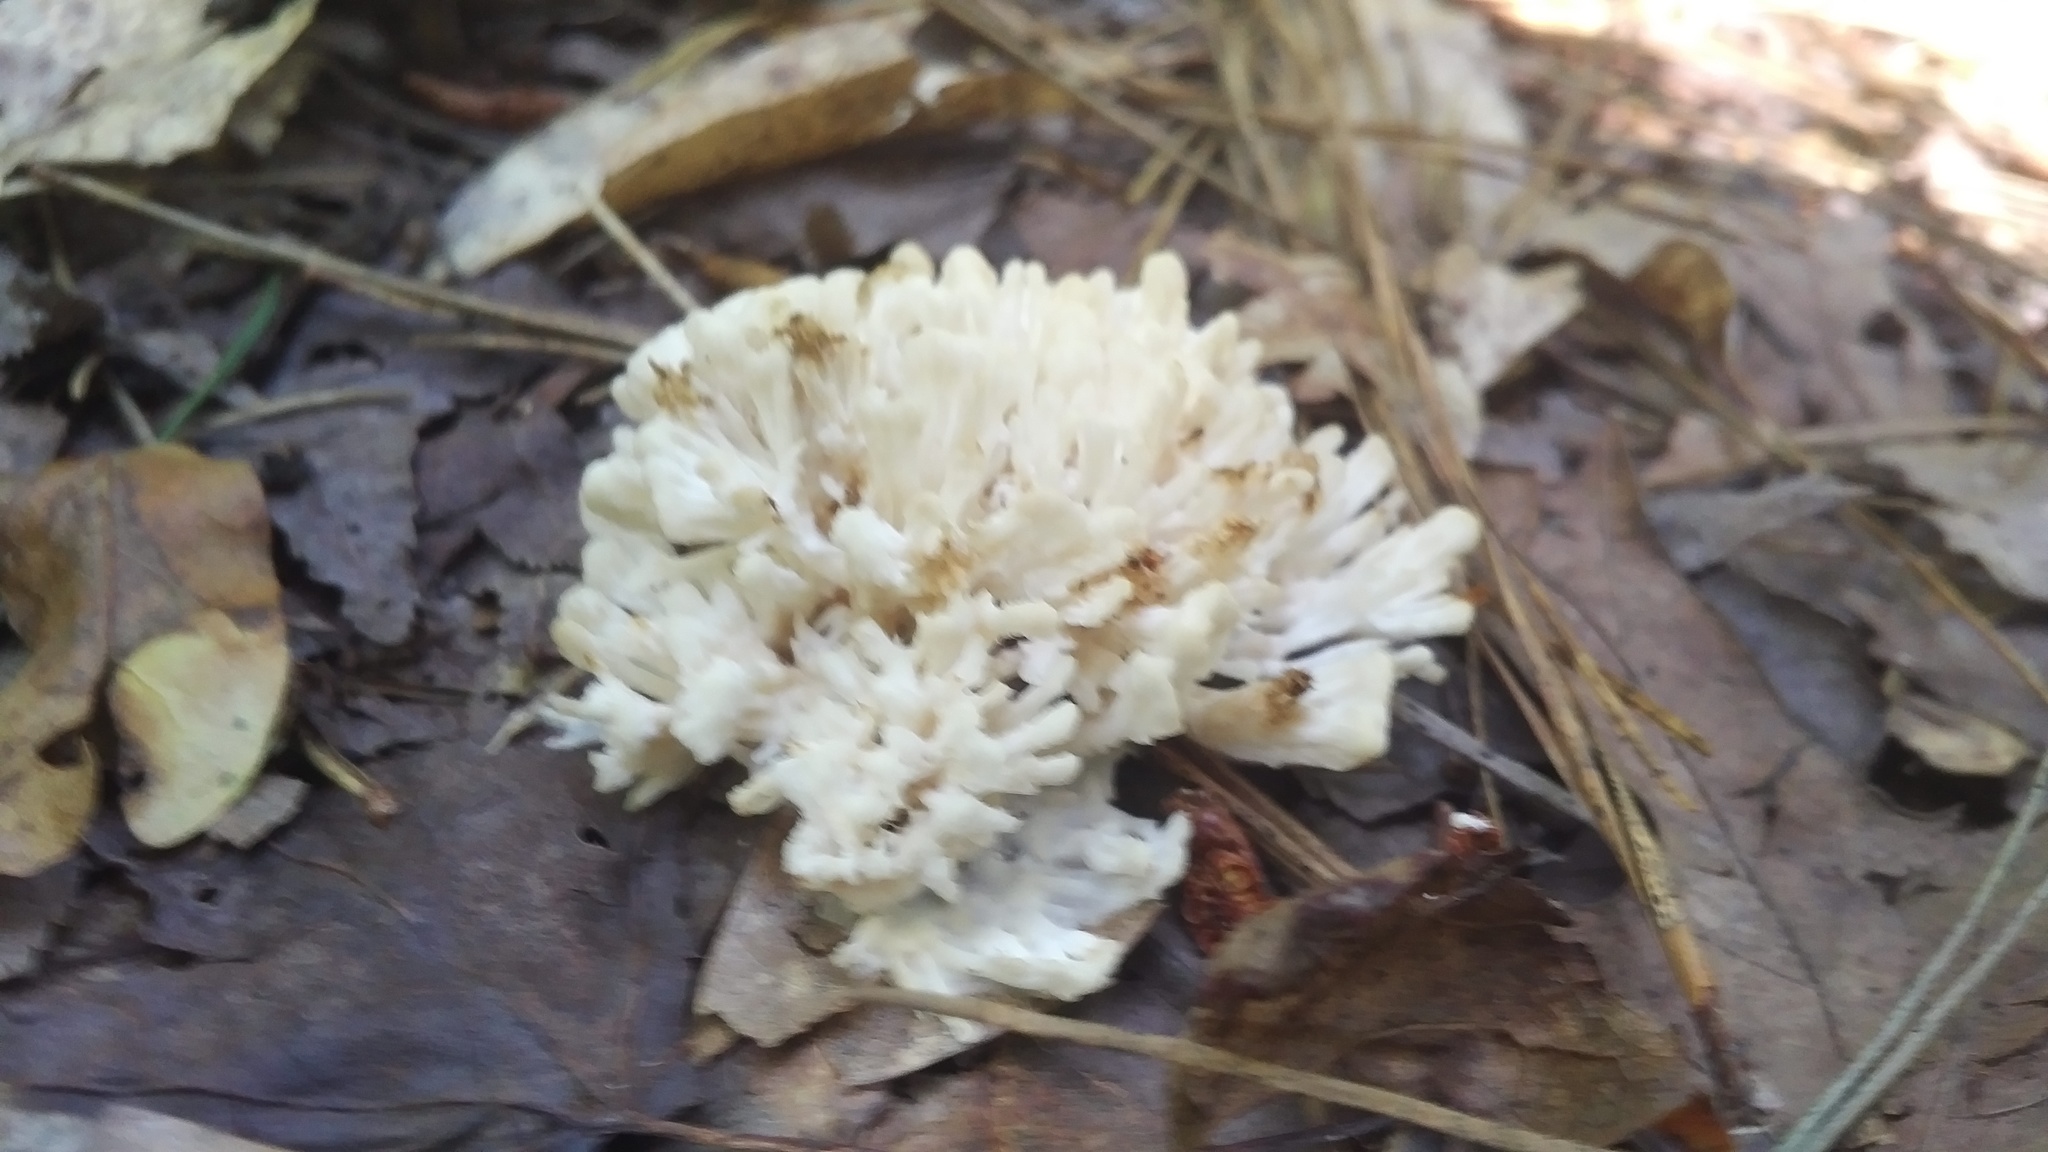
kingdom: Fungi
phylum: Basidiomycota
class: Agaricomycetes
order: Sebacinales
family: Sebacinaceae
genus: Sebacina
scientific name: Sebacina schweinitzii
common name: Jellied false coral fungus
